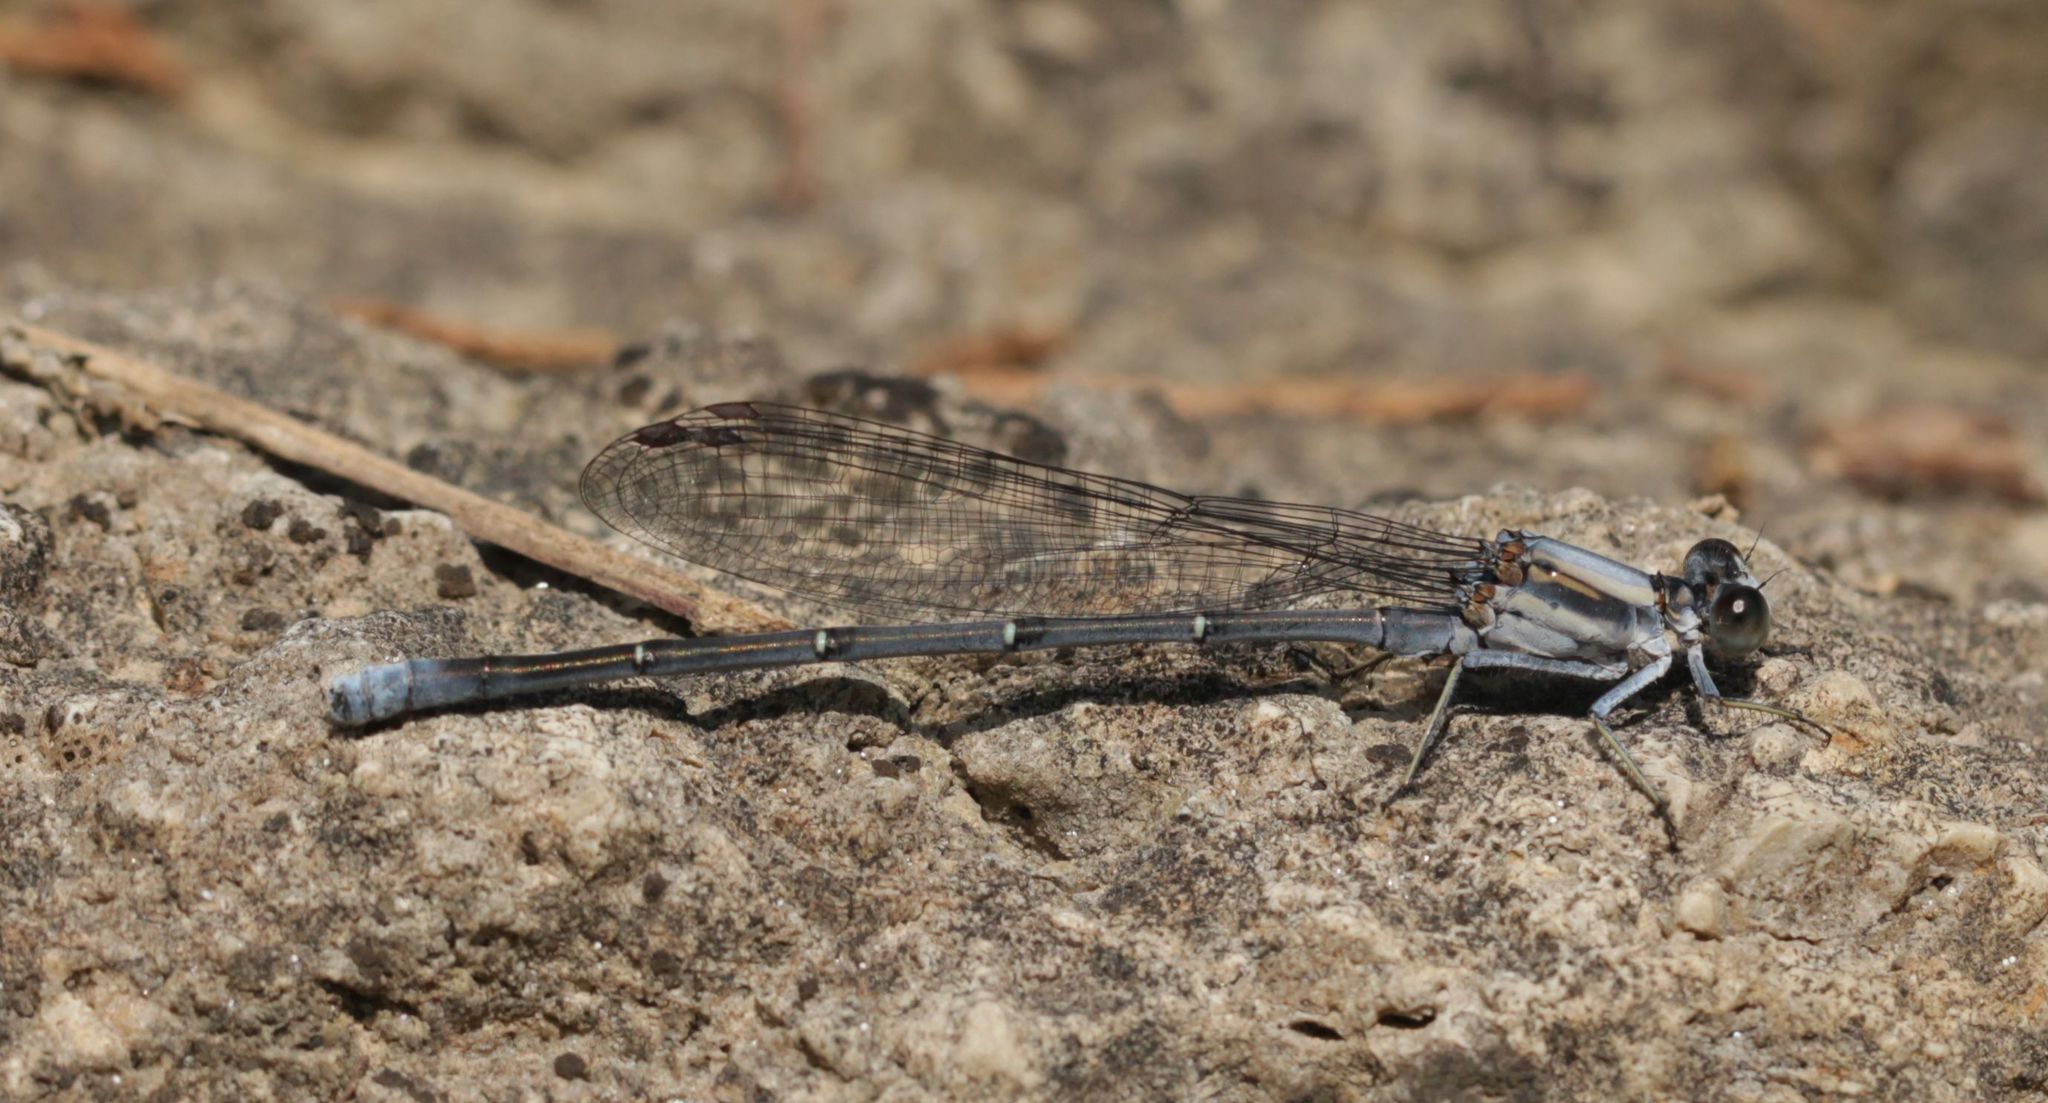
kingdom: Animalia
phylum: Arthropoda
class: Insecta
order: Odonata
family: Coenagrionidae
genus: Argia
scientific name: Argia moesta
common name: Powdered dancer
